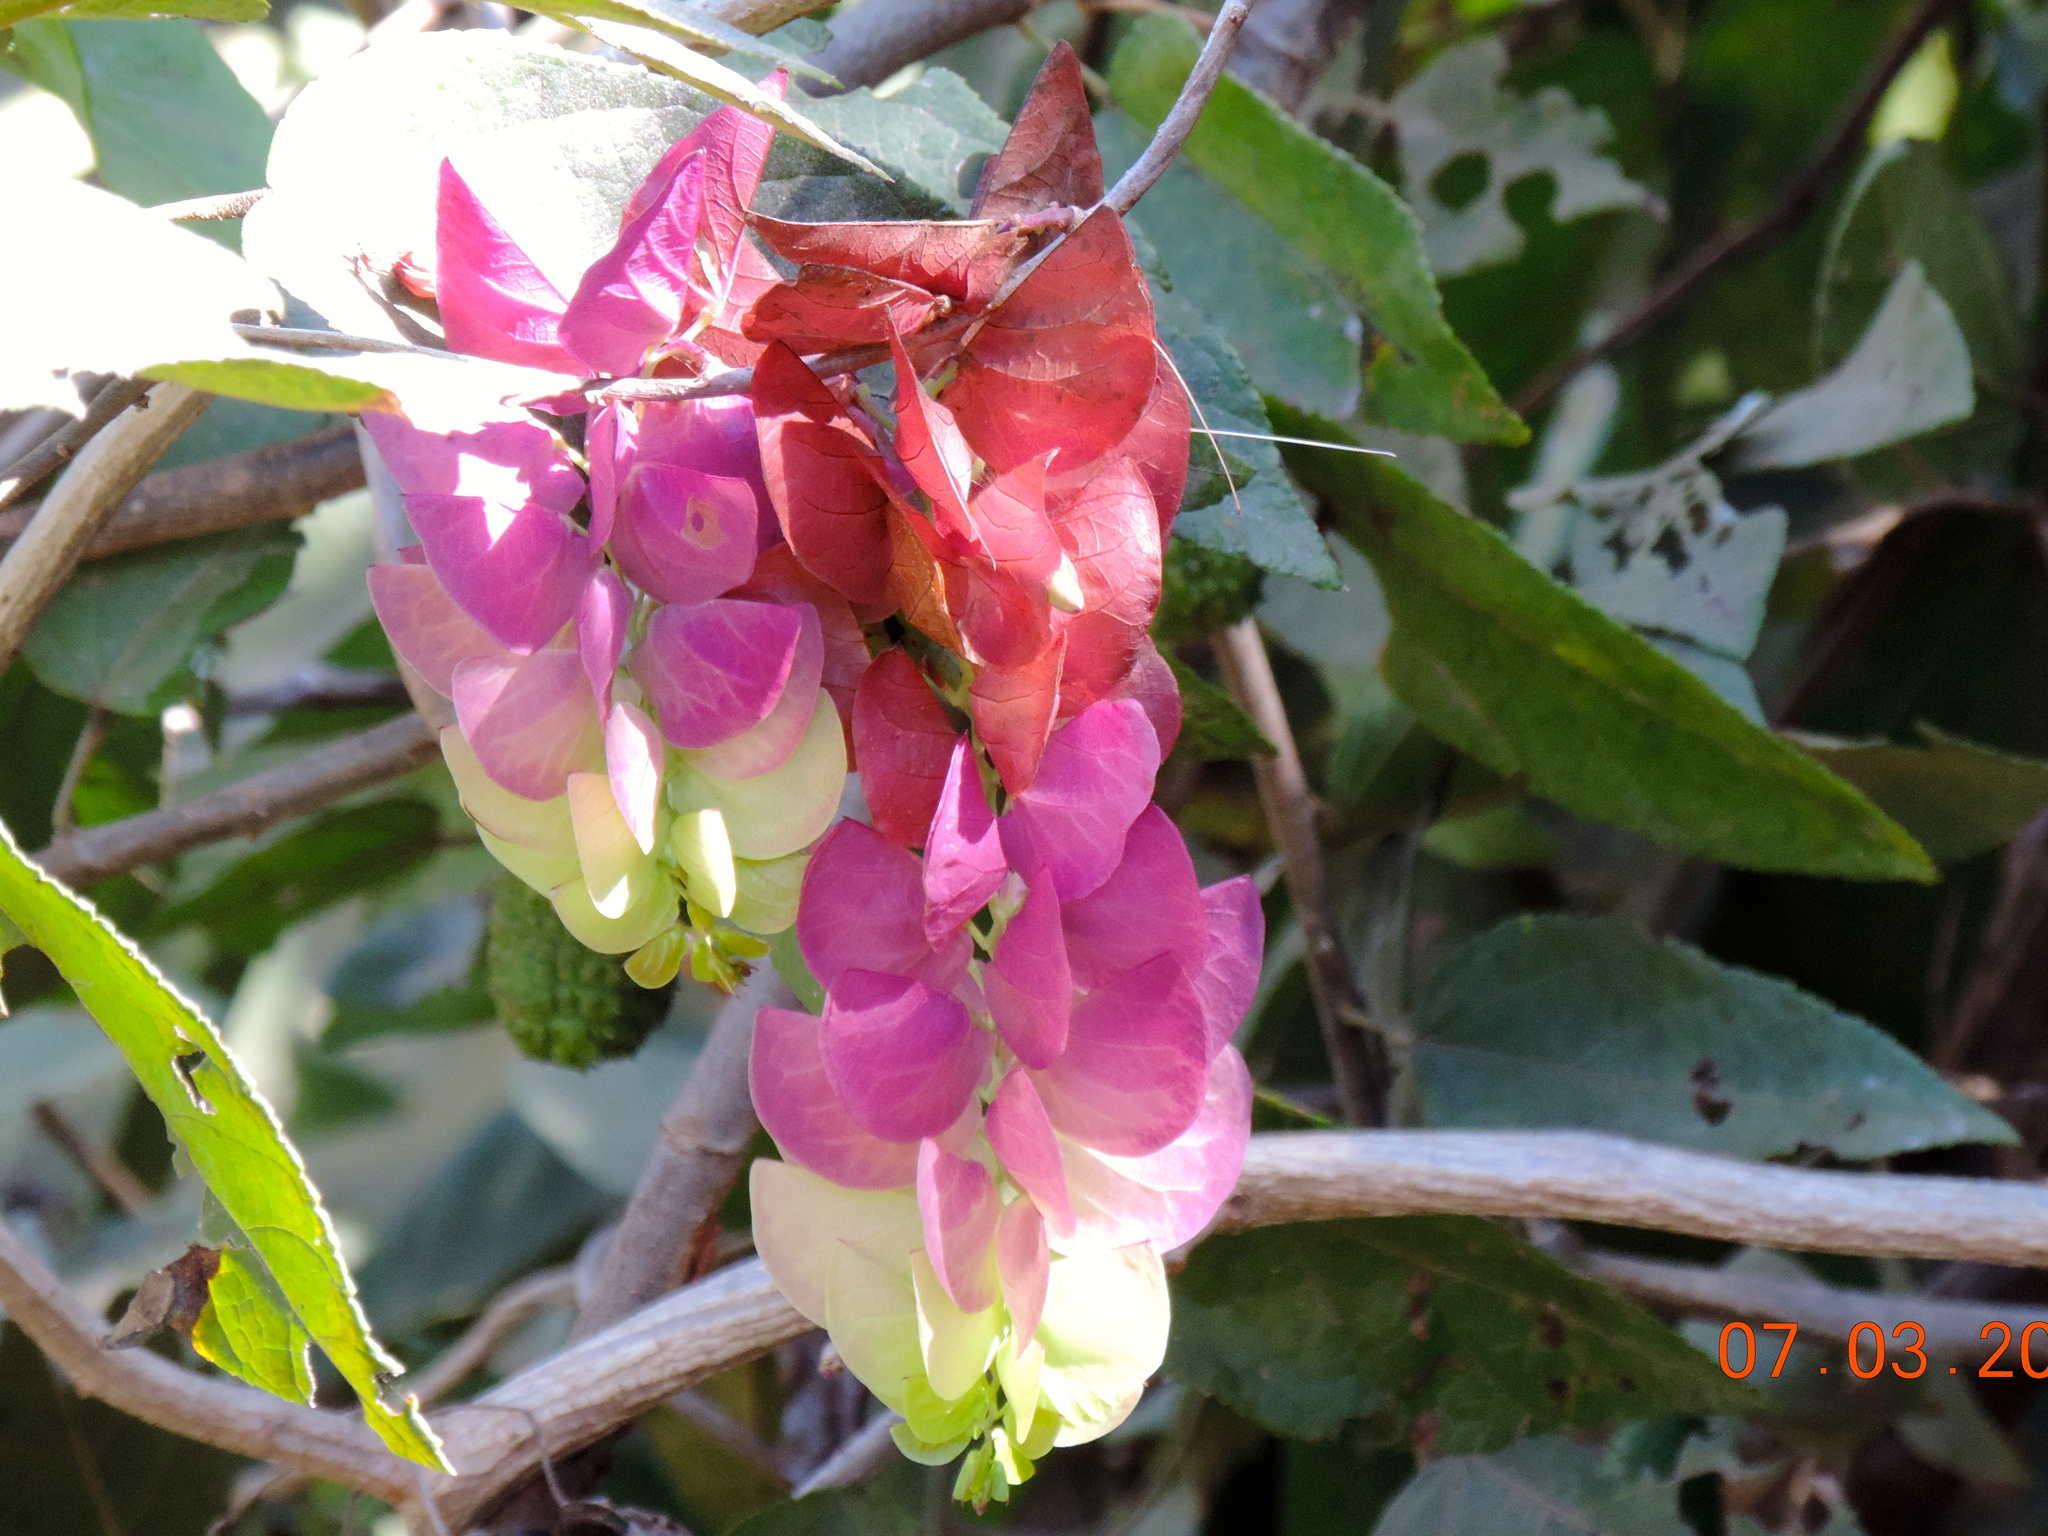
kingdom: Plantae
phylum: Tracheophyta
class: Magnoliopsida
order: Solanales
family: Convolvulaceae
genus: Ipomoea
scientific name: Ipomoea bracteata
